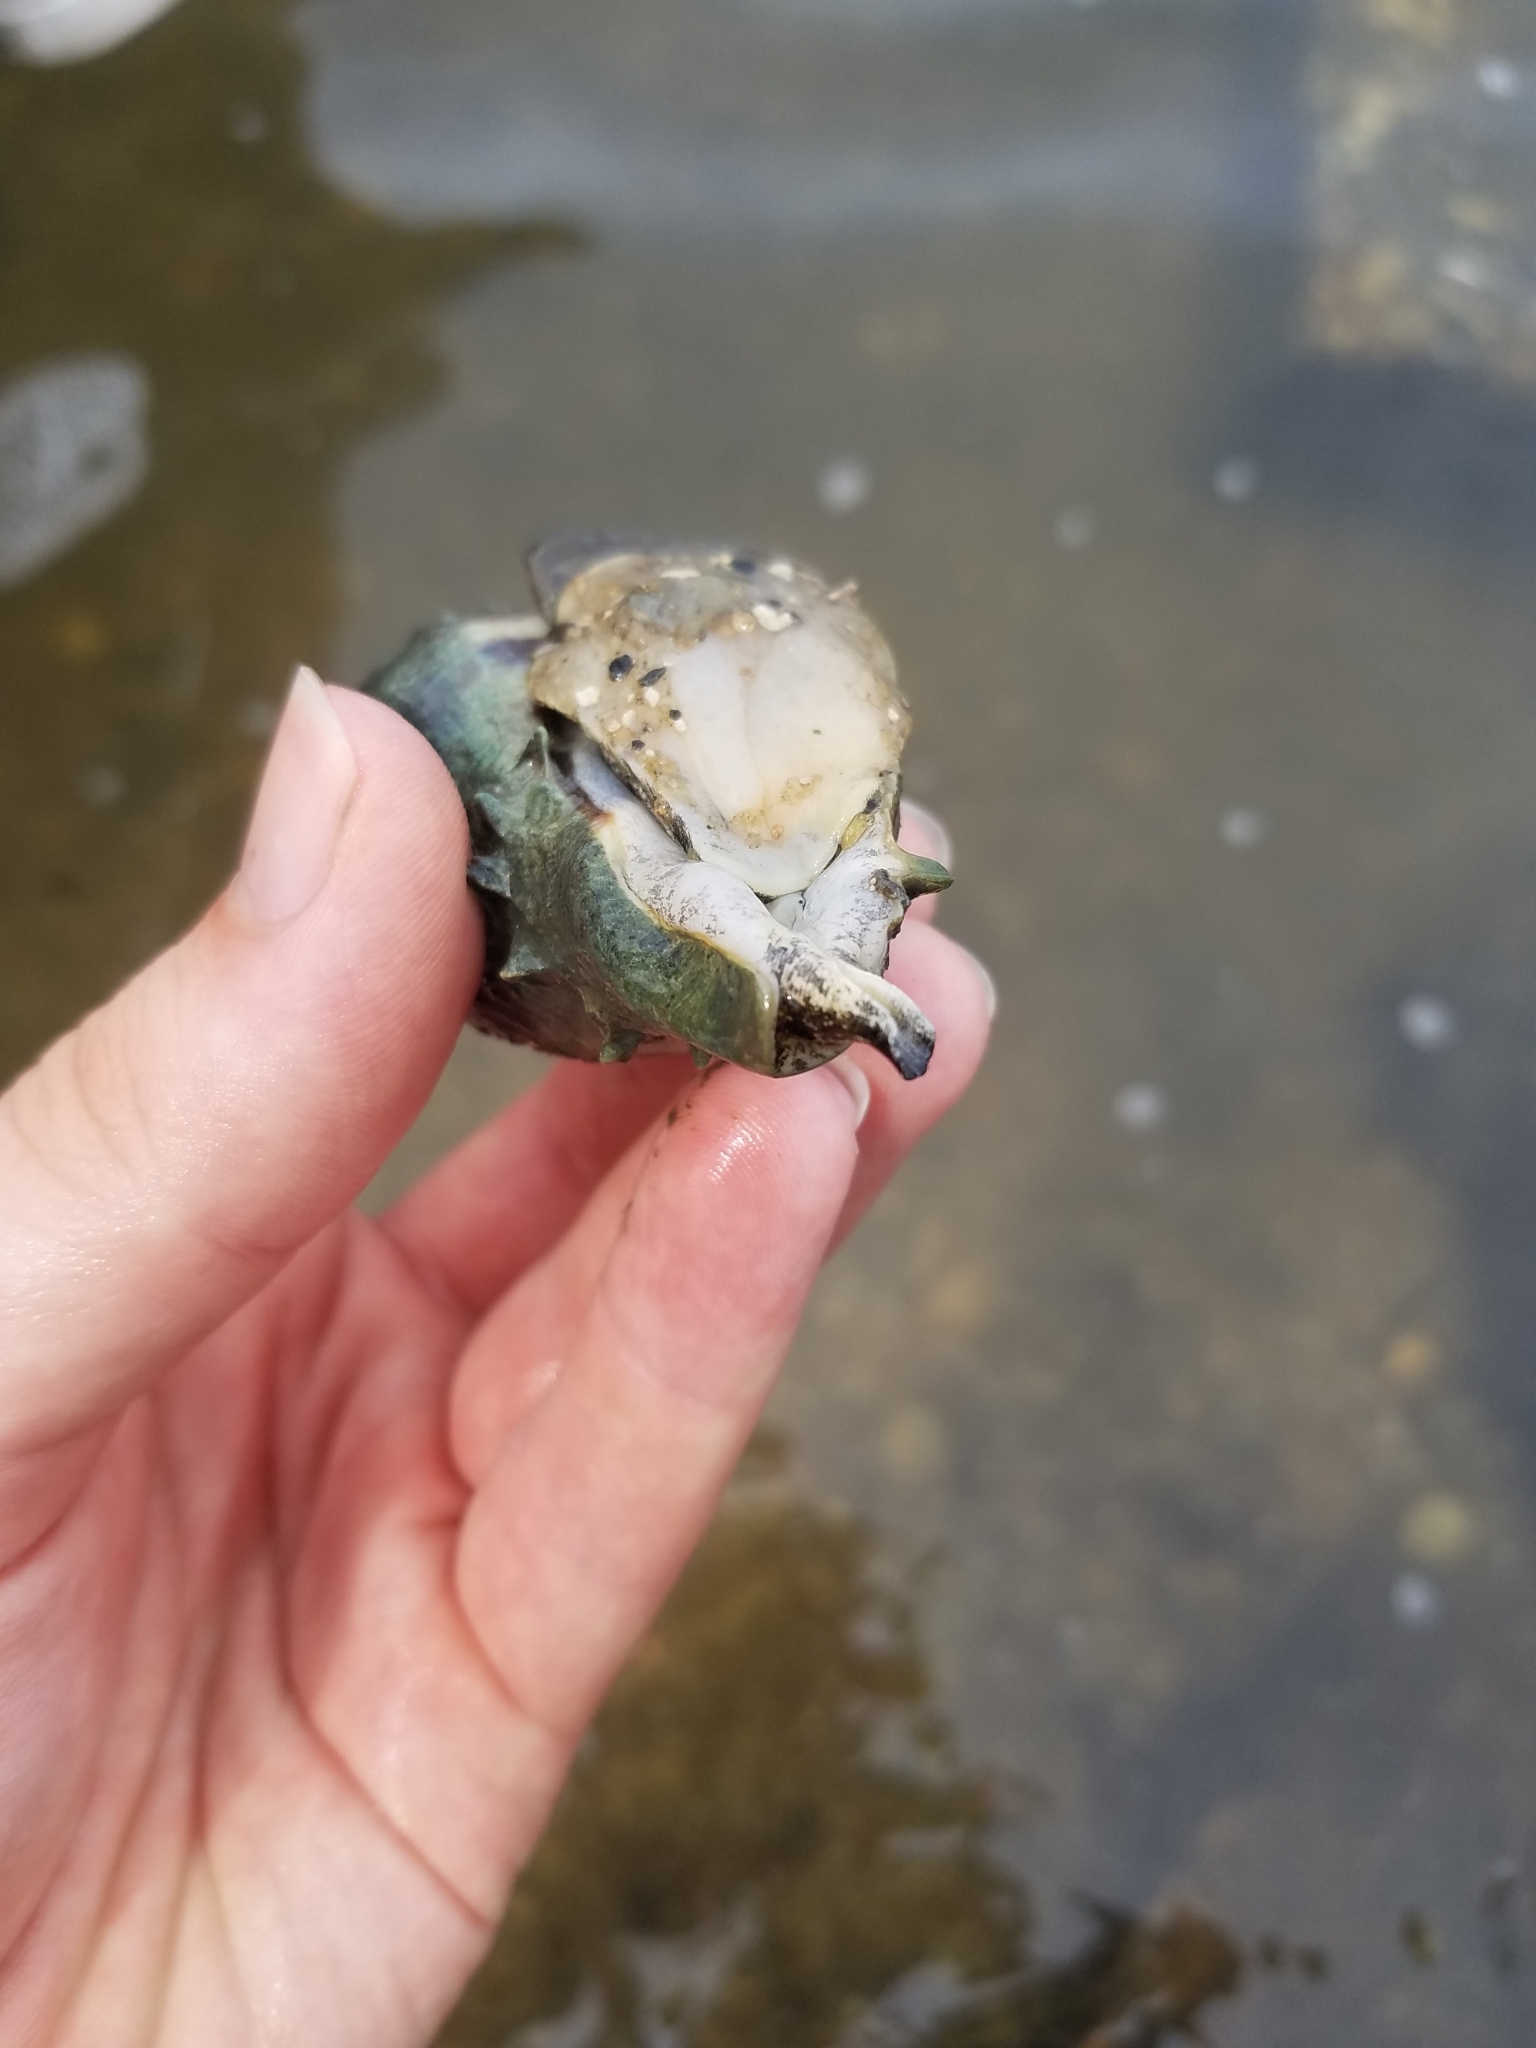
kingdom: Animalia
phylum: Mollusca
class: Gastropoda
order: Neogastropoda
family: Melongenidae
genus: Melongena
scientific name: Melongena corona
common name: American crown conch
